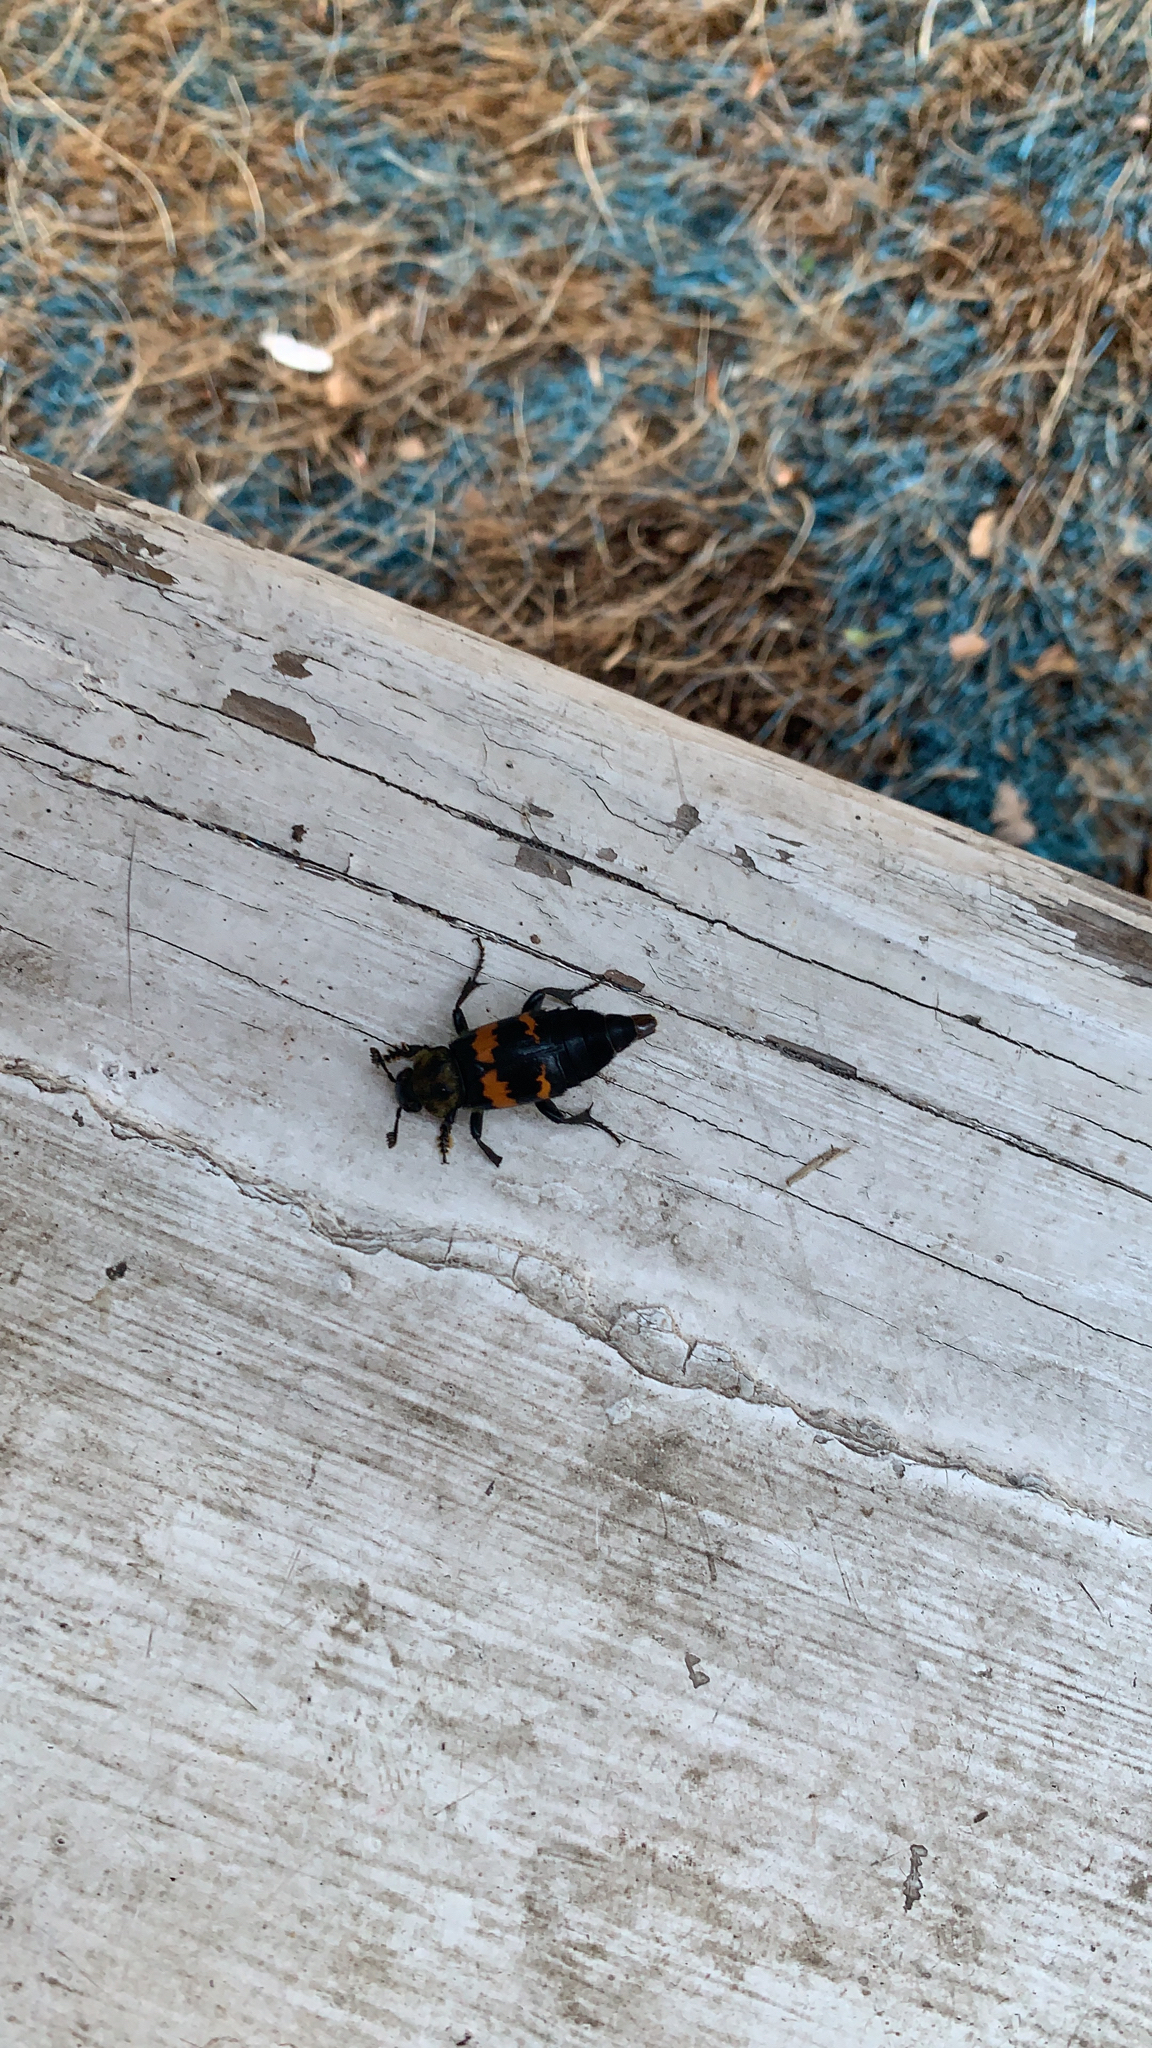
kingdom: Animalia
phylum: Arthropoda
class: Insecta
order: Coleoptera
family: Staphylinidae
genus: Nicrophorus
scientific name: Nicrophorus tomentosus
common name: Tomentose burying beetle
